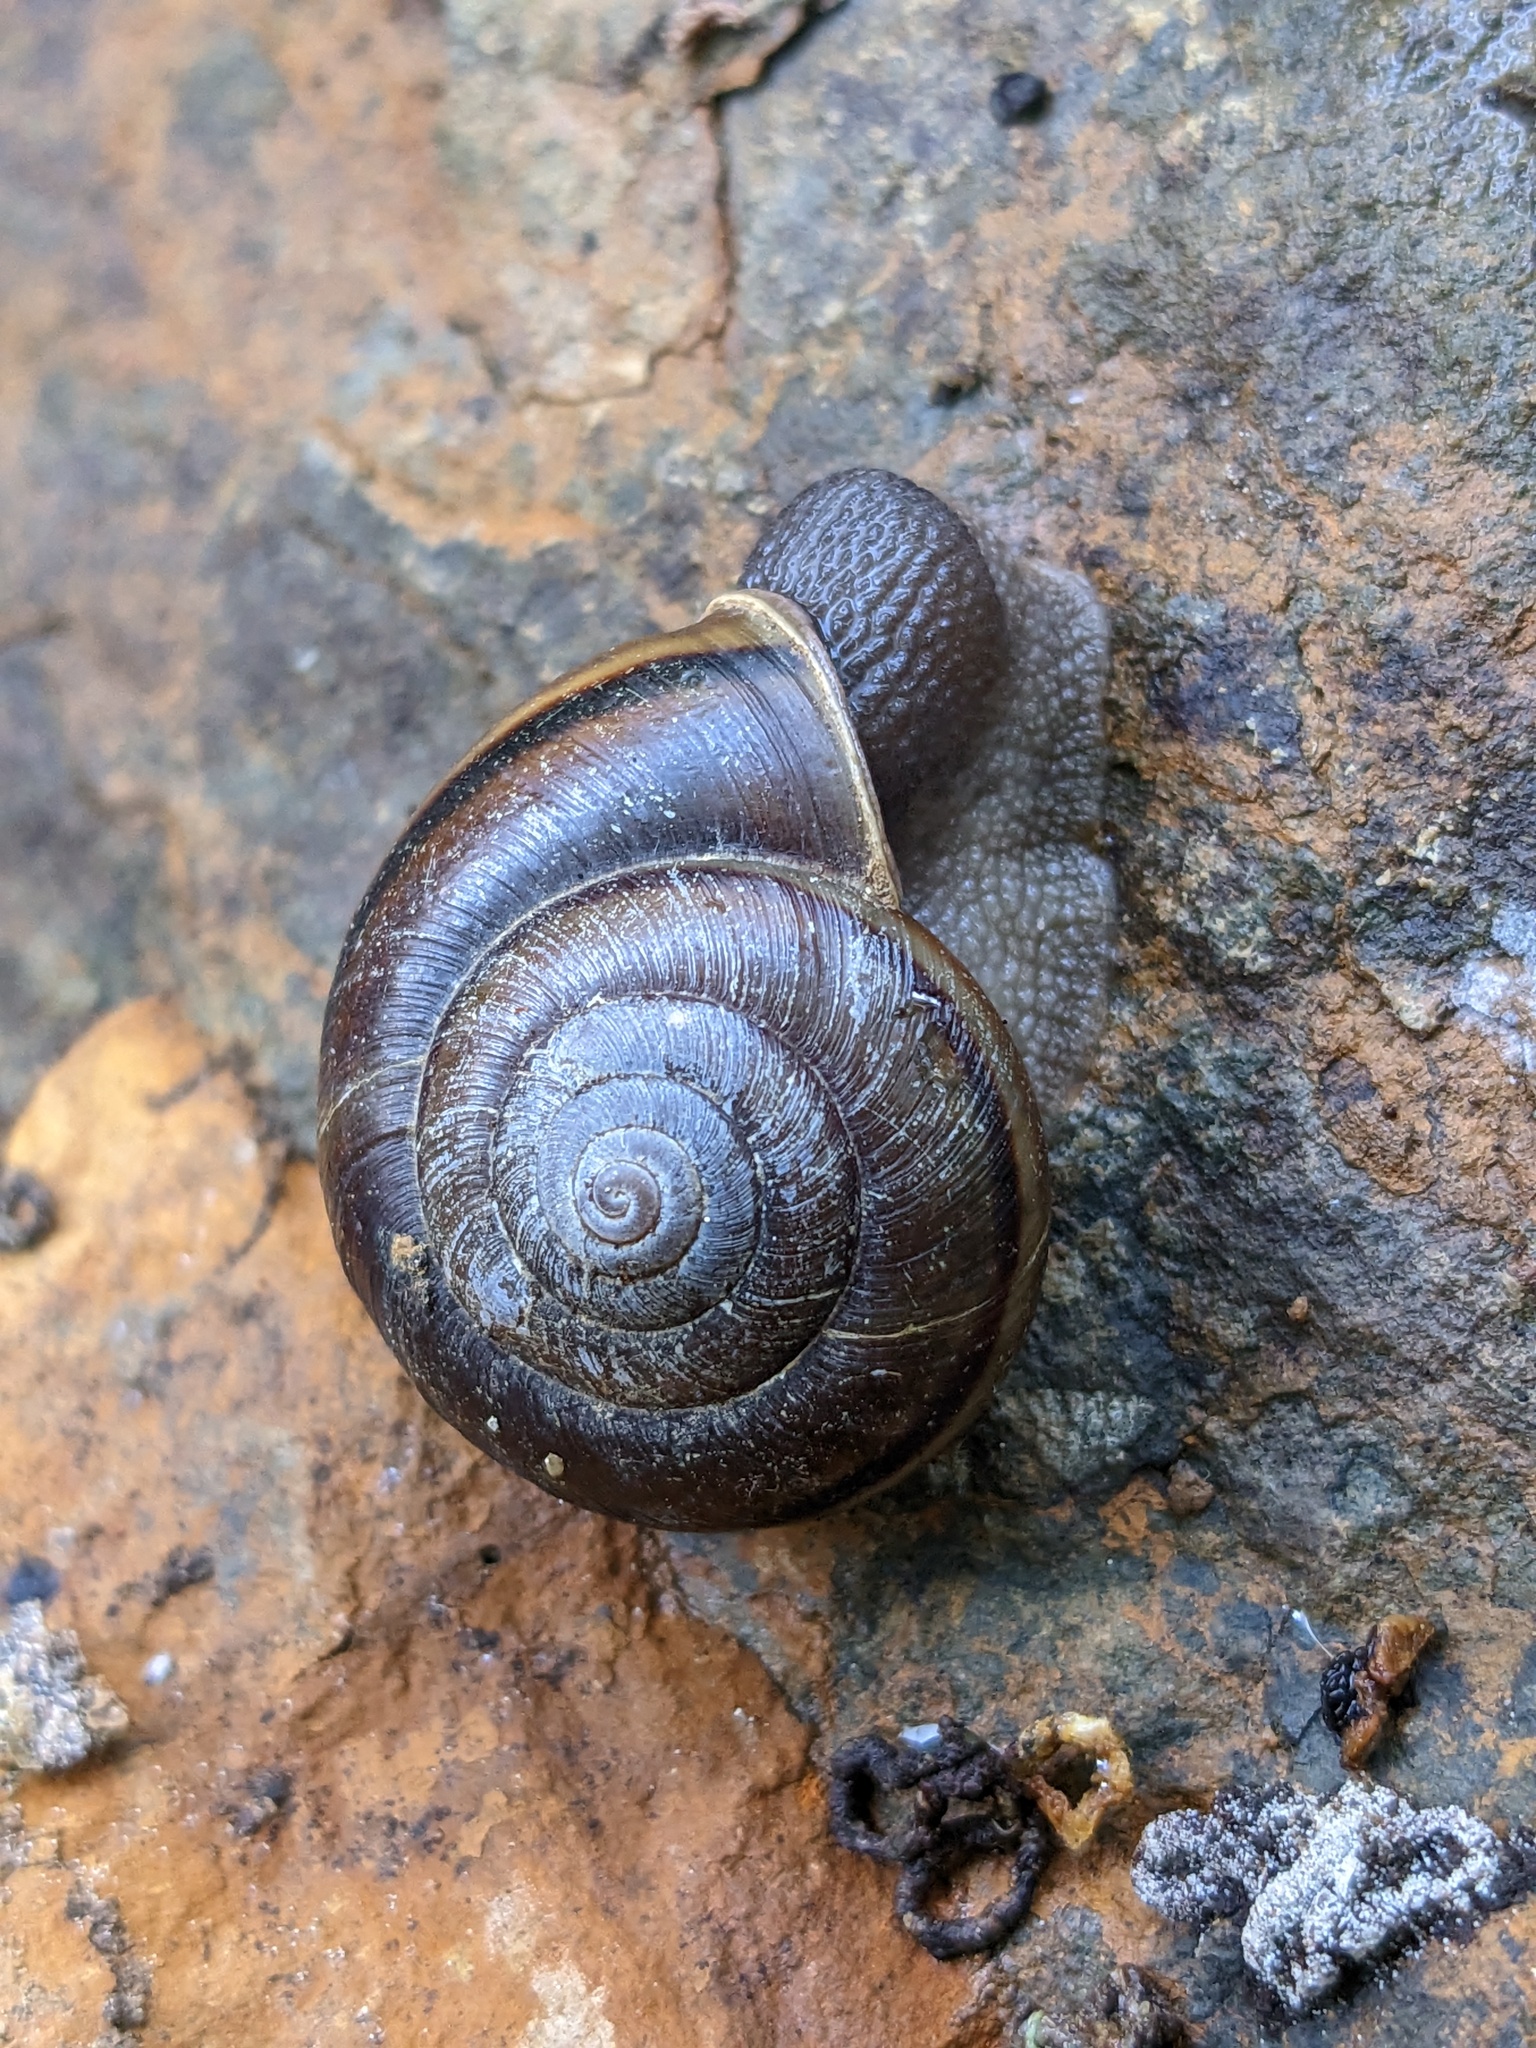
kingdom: Animalia
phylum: Mollusca
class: Gastropoda
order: Stylommatophora
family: Xanthonychidae
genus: Helminthoglypta
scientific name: Helminthoglypta umbilicata
